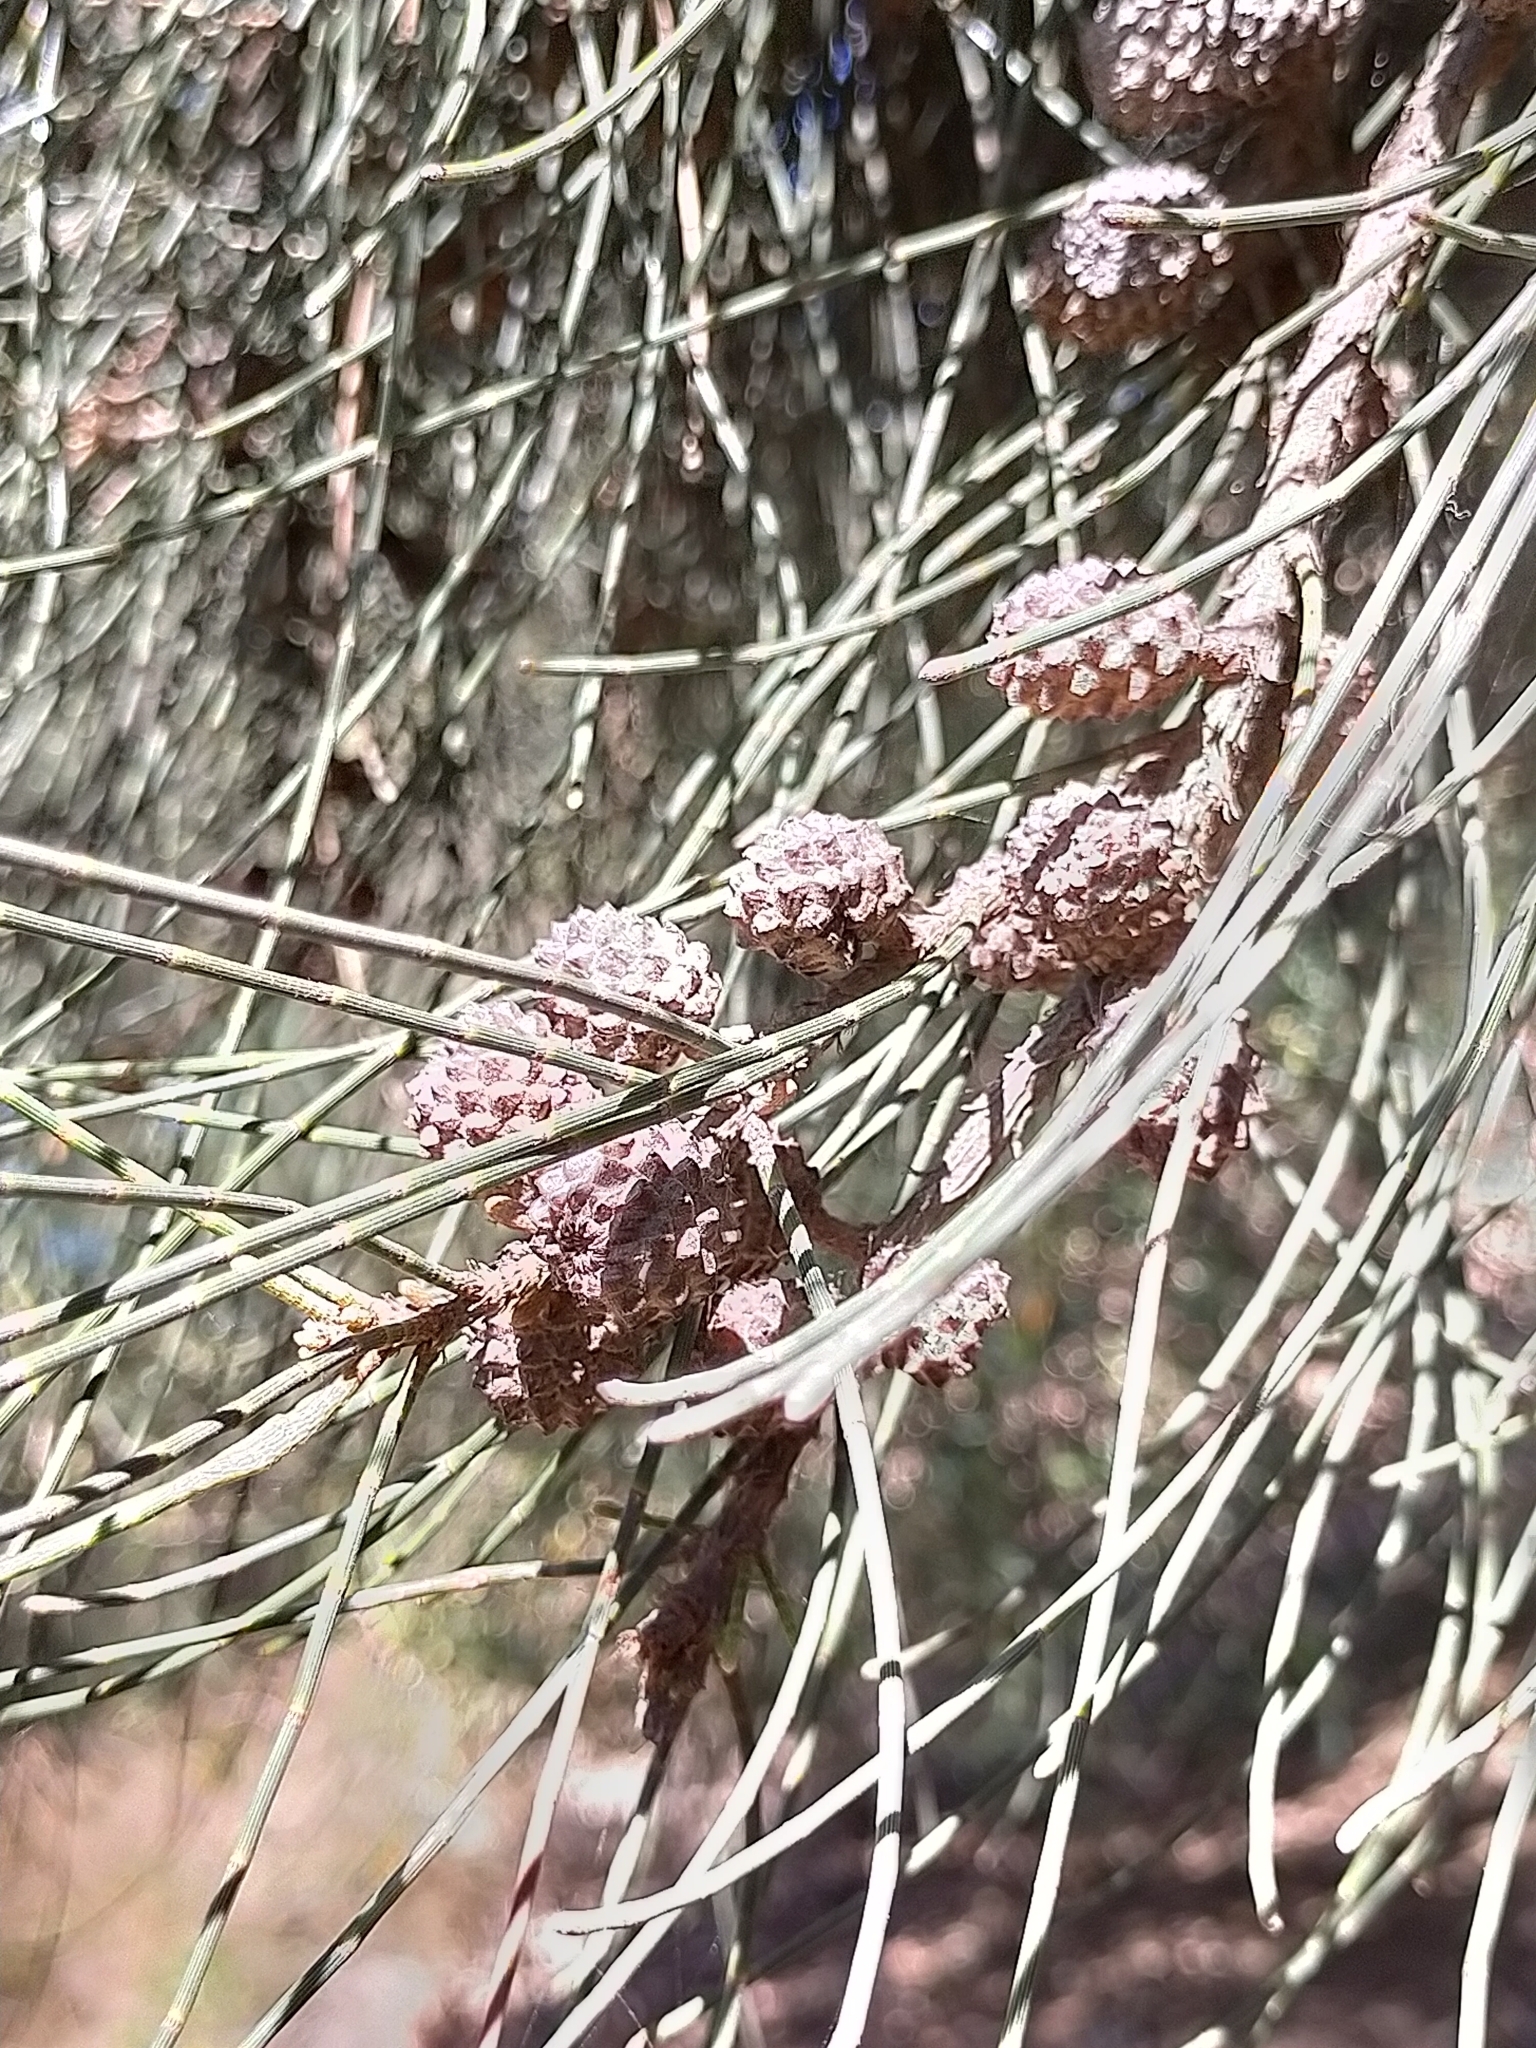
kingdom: Plantae
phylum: Tracheophyta
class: Magnoliopsida
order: Fagales
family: Casuarinaceae
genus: Allocasuarina
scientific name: Allocasuarina verticillata
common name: Drooping she-oak
